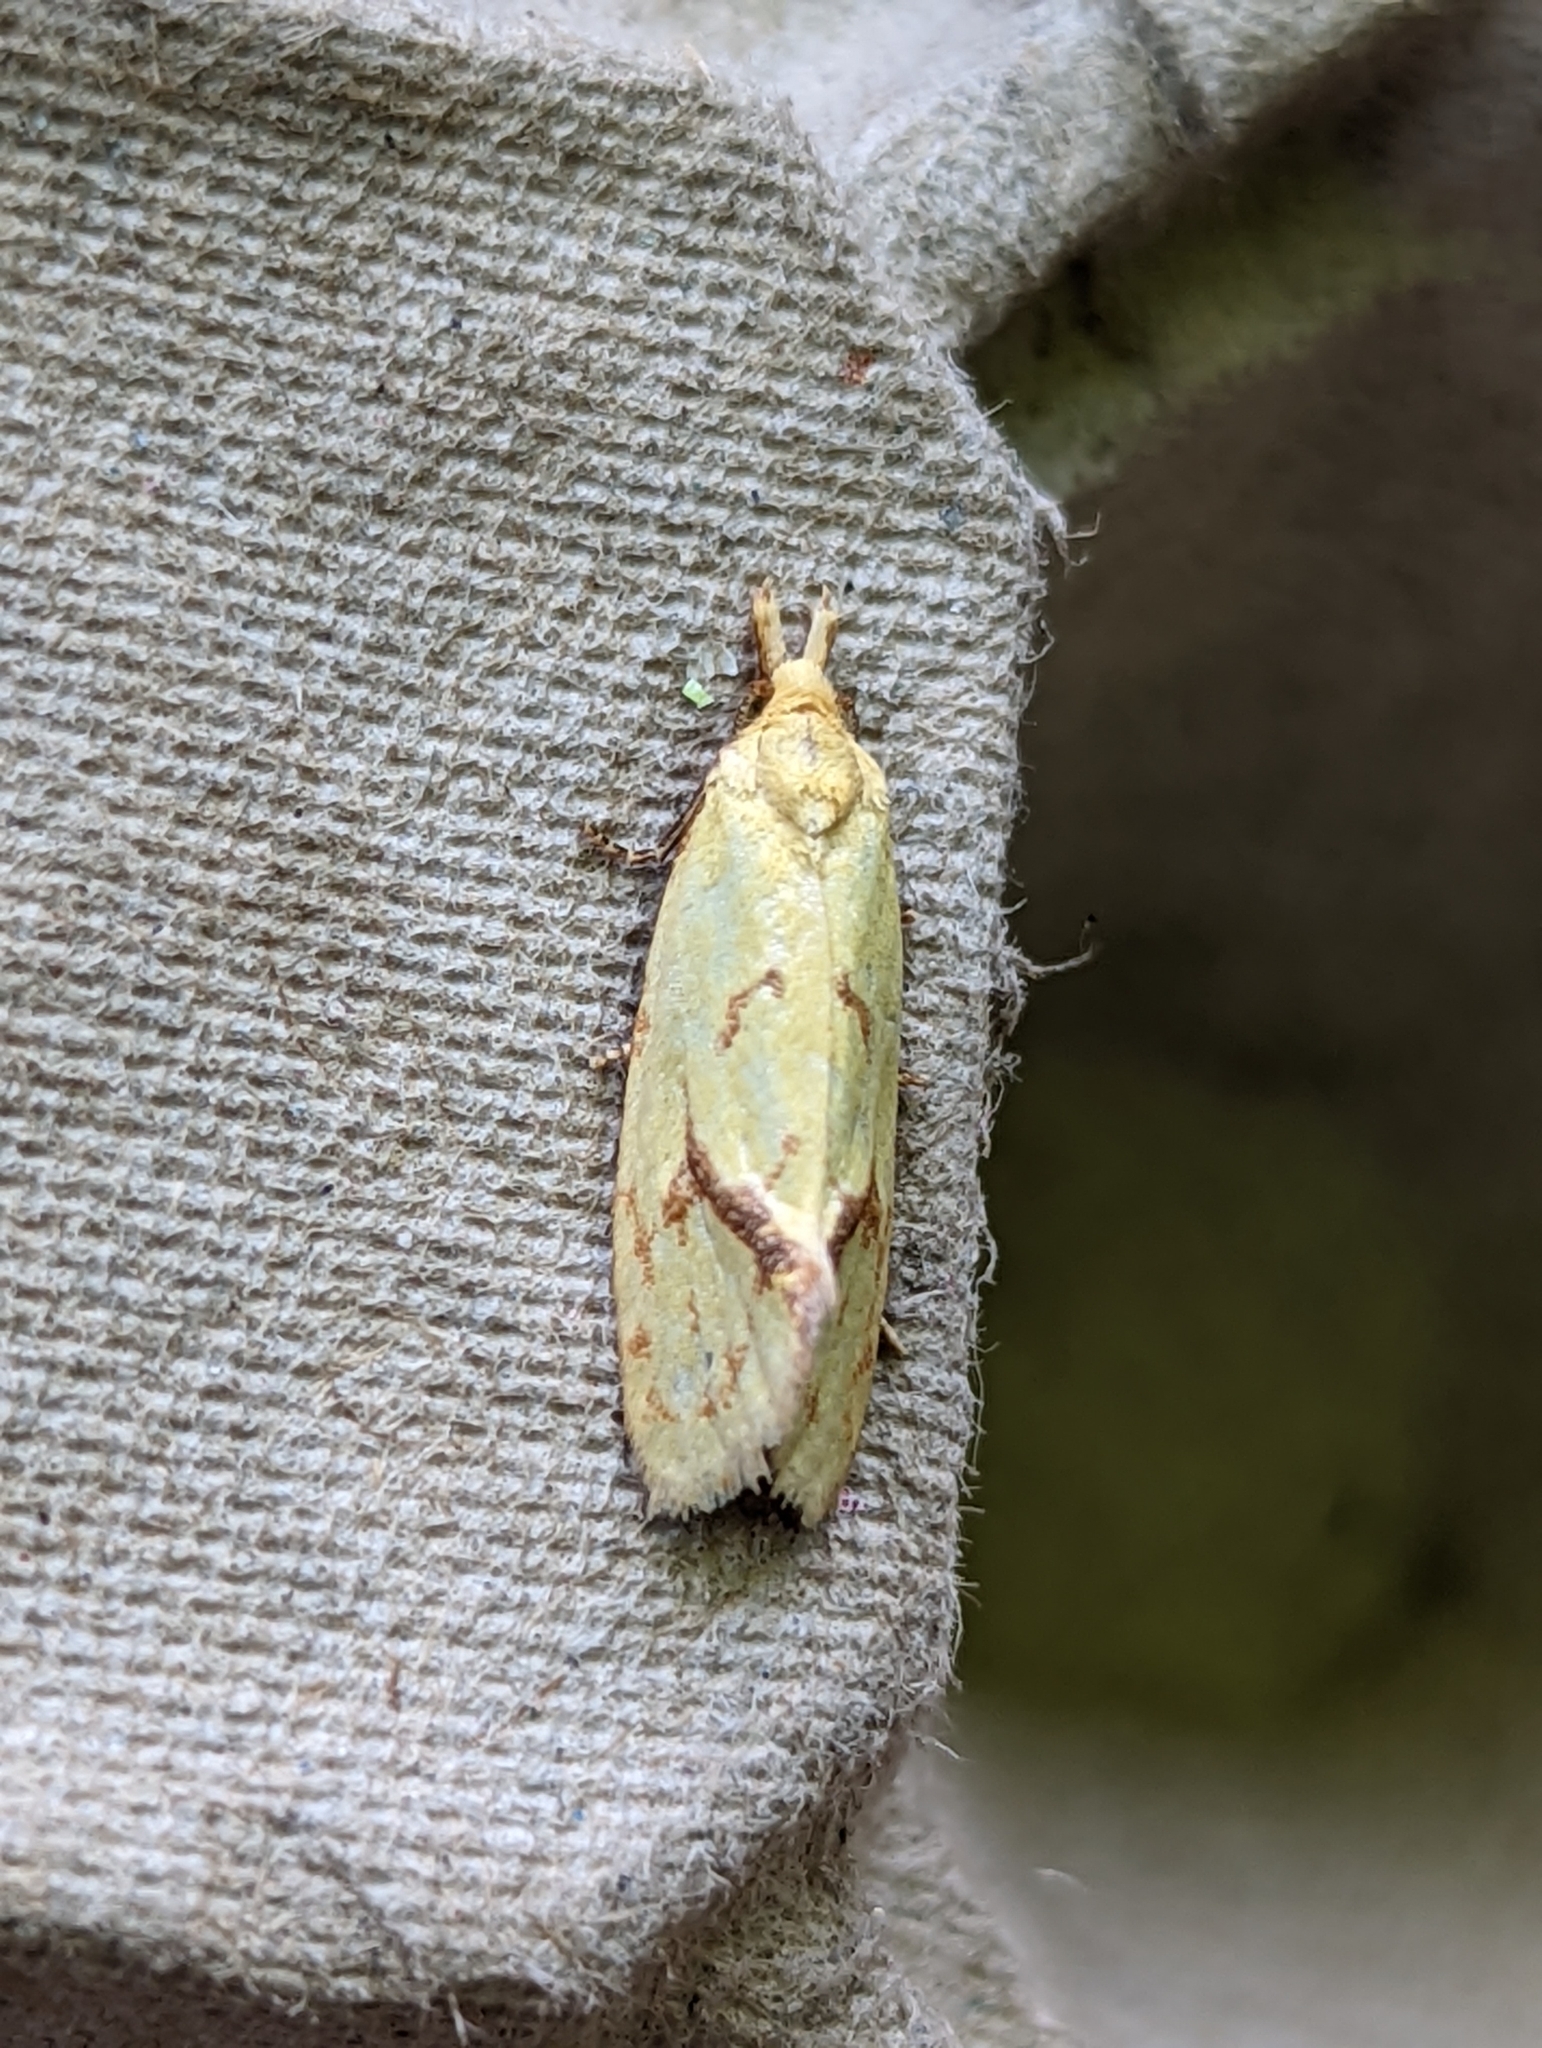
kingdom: Animalia
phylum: Arthropoda
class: Insecta
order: Lepidoptera
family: Tortricidae
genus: Agapeta
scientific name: Agapeta hamana
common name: Common yellow conch
